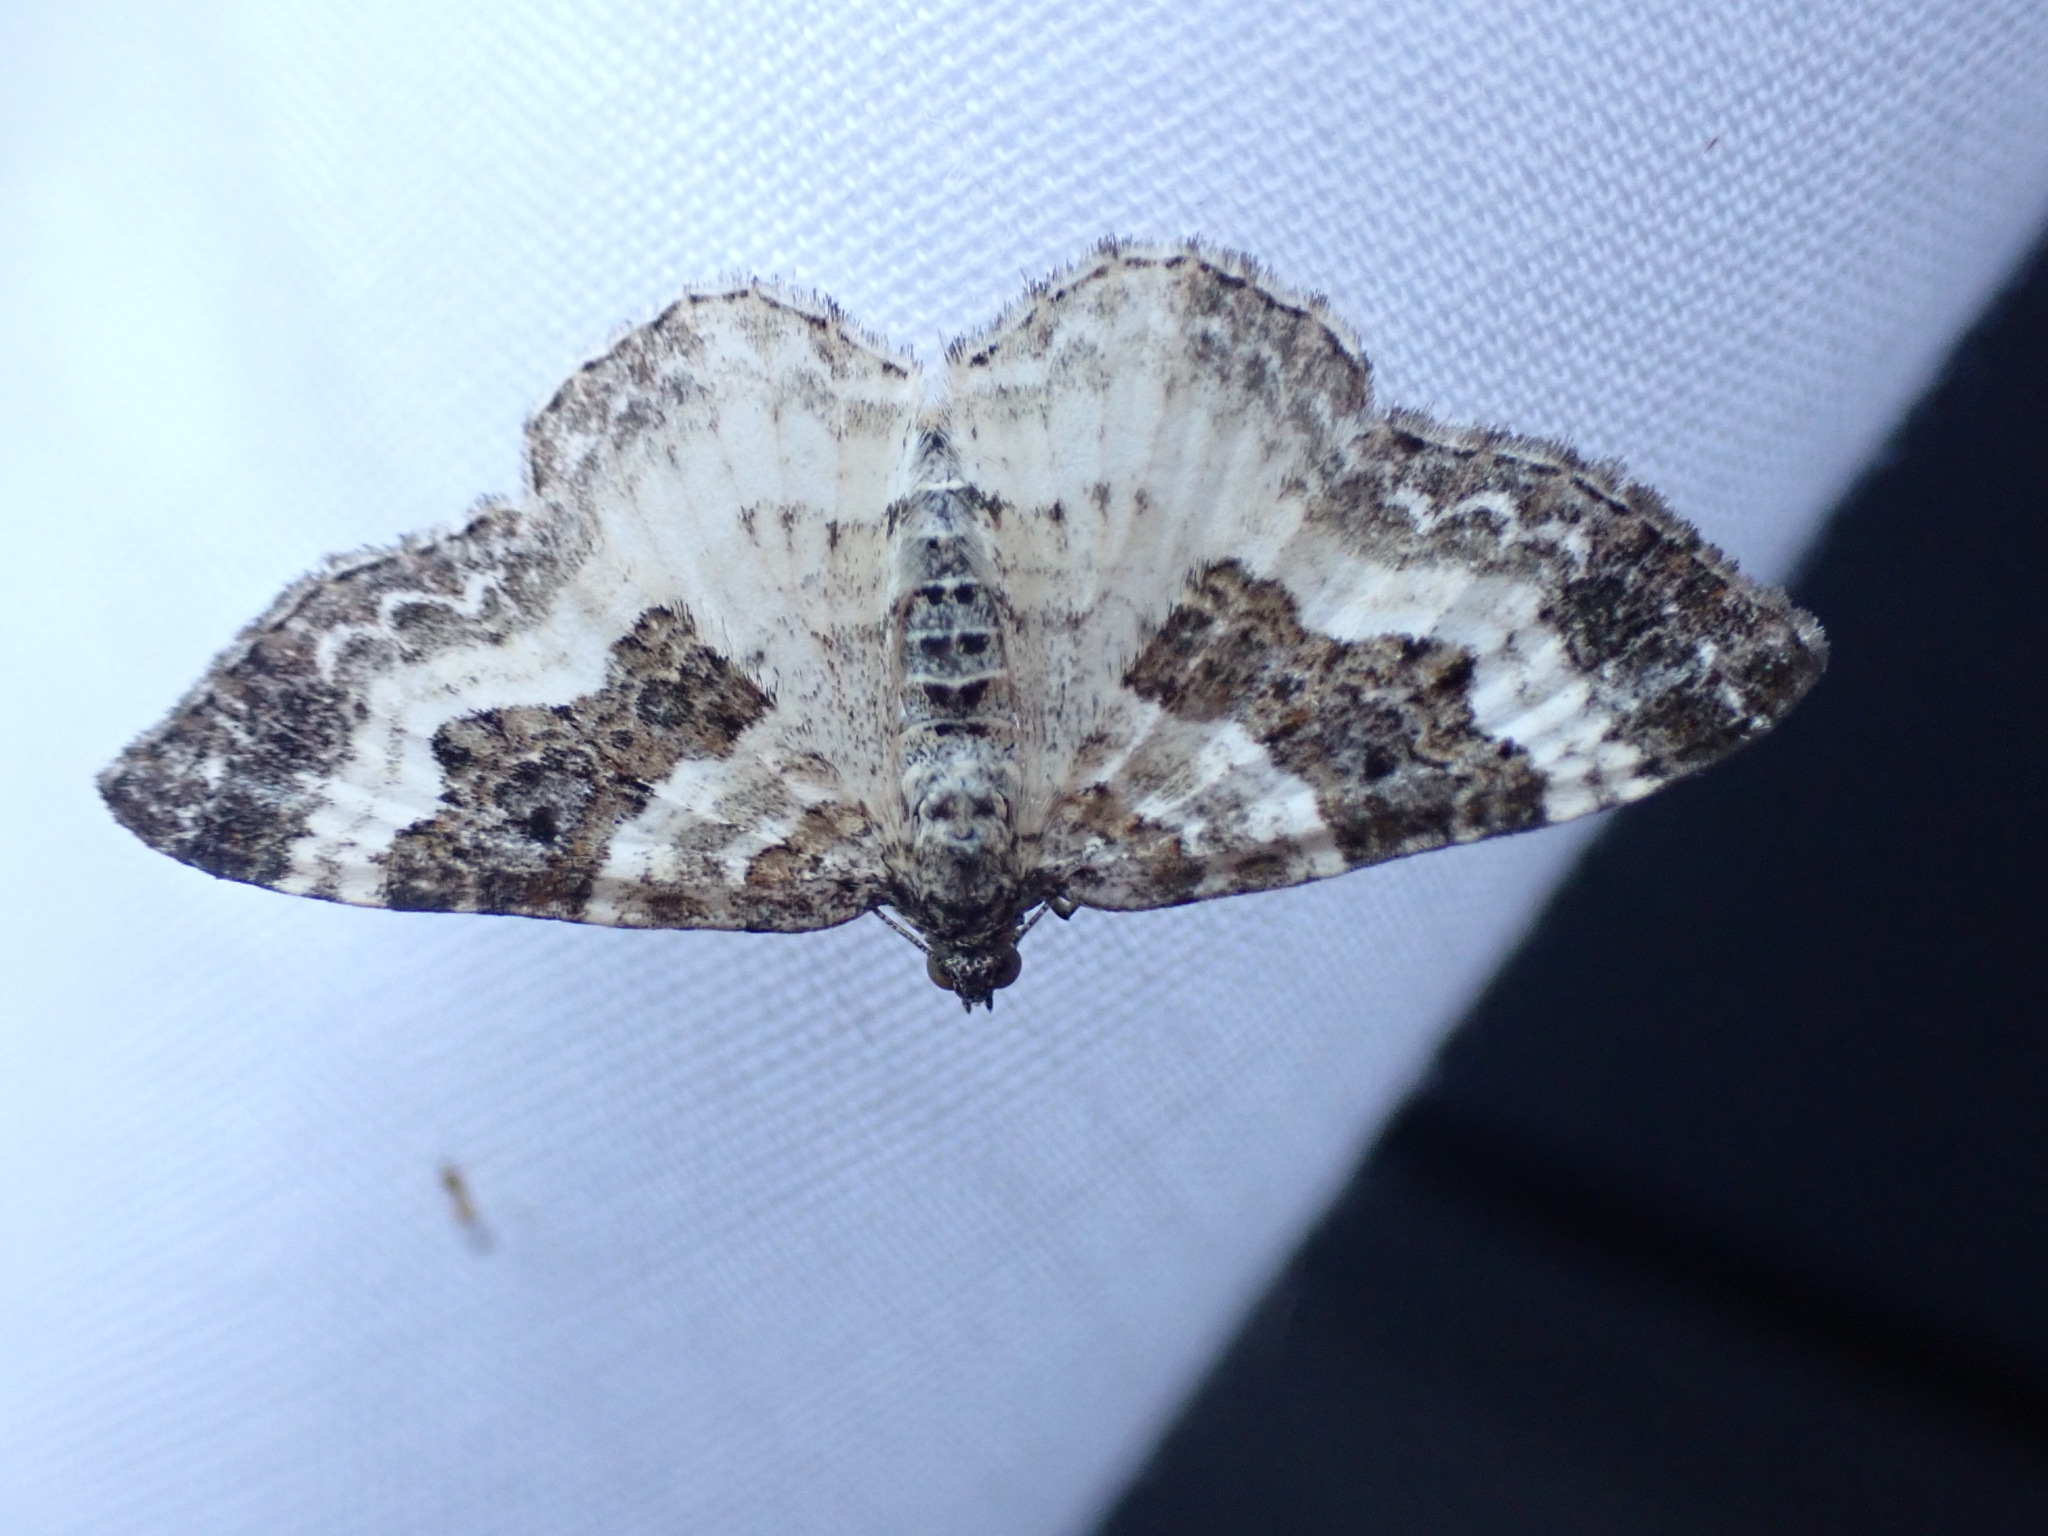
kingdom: Animalia
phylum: Arthropoda
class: Insecta
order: Lepidoptera
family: Geometridae
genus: Epirrhoe
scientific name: Epirrhoe alternata
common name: Common carpet
